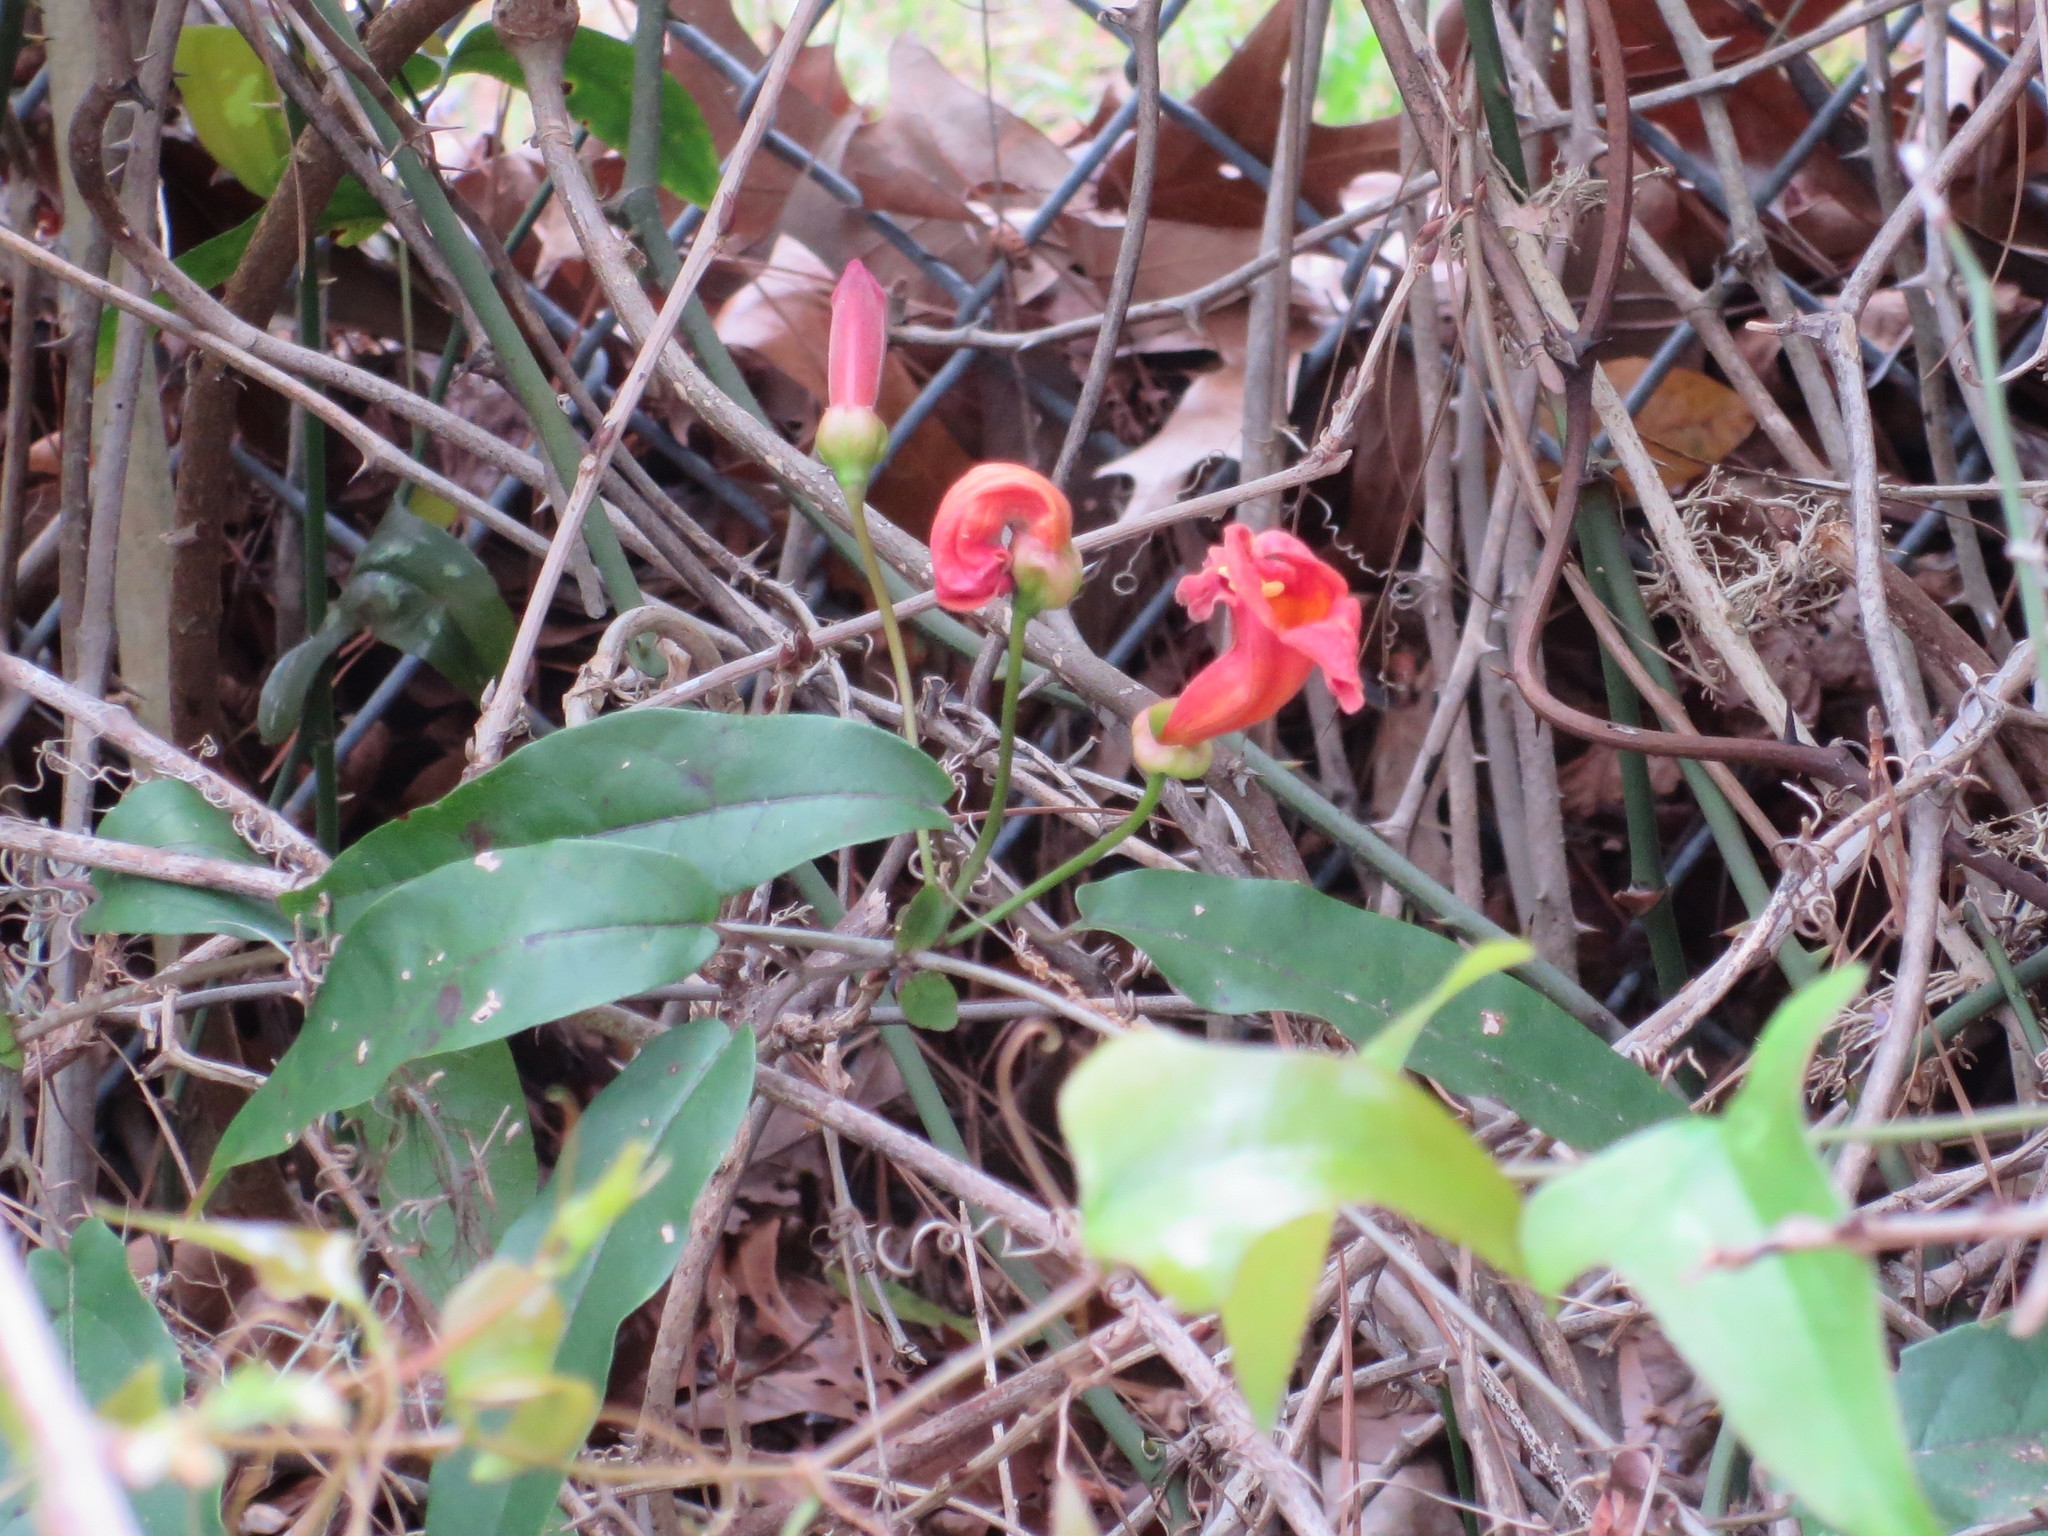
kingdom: Plantae
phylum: Tracheophyta
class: Magnoliopsida
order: Lamiales
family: Bignoniaceae
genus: Bignonia
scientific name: Bignonia capreolata
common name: Crossvine
